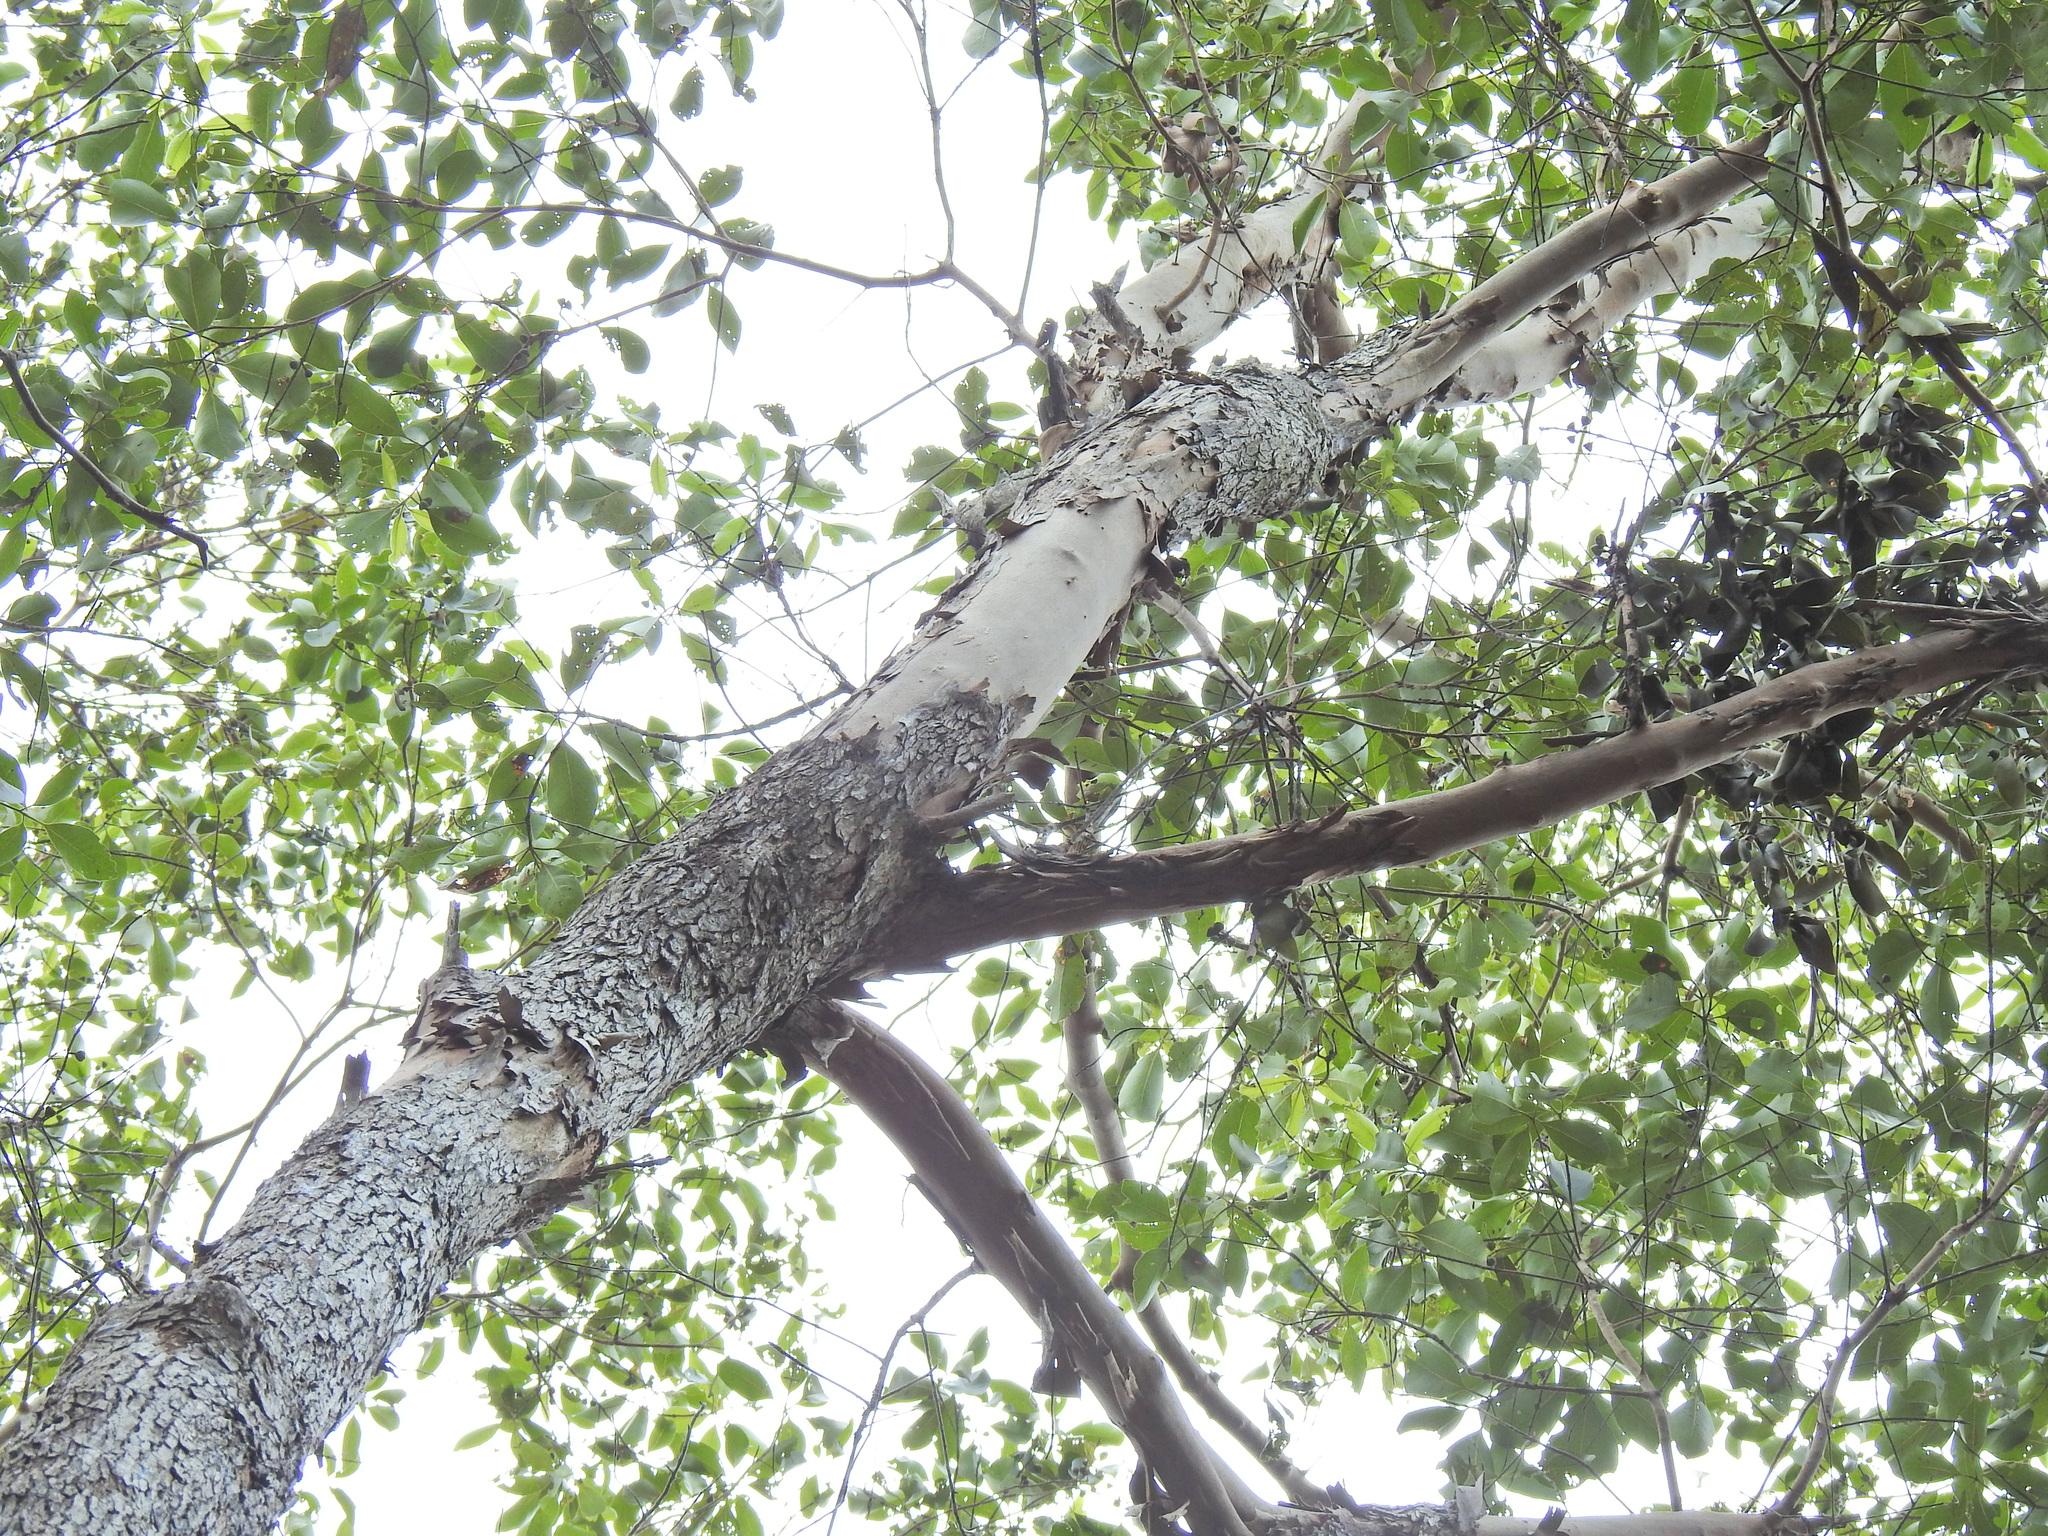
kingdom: Plantae
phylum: Tracheophyta
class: Magnoliopsida
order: Myrtales
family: Myrtaceae
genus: Lophostemon
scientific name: Lophostemon confertus
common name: Brisbane box
